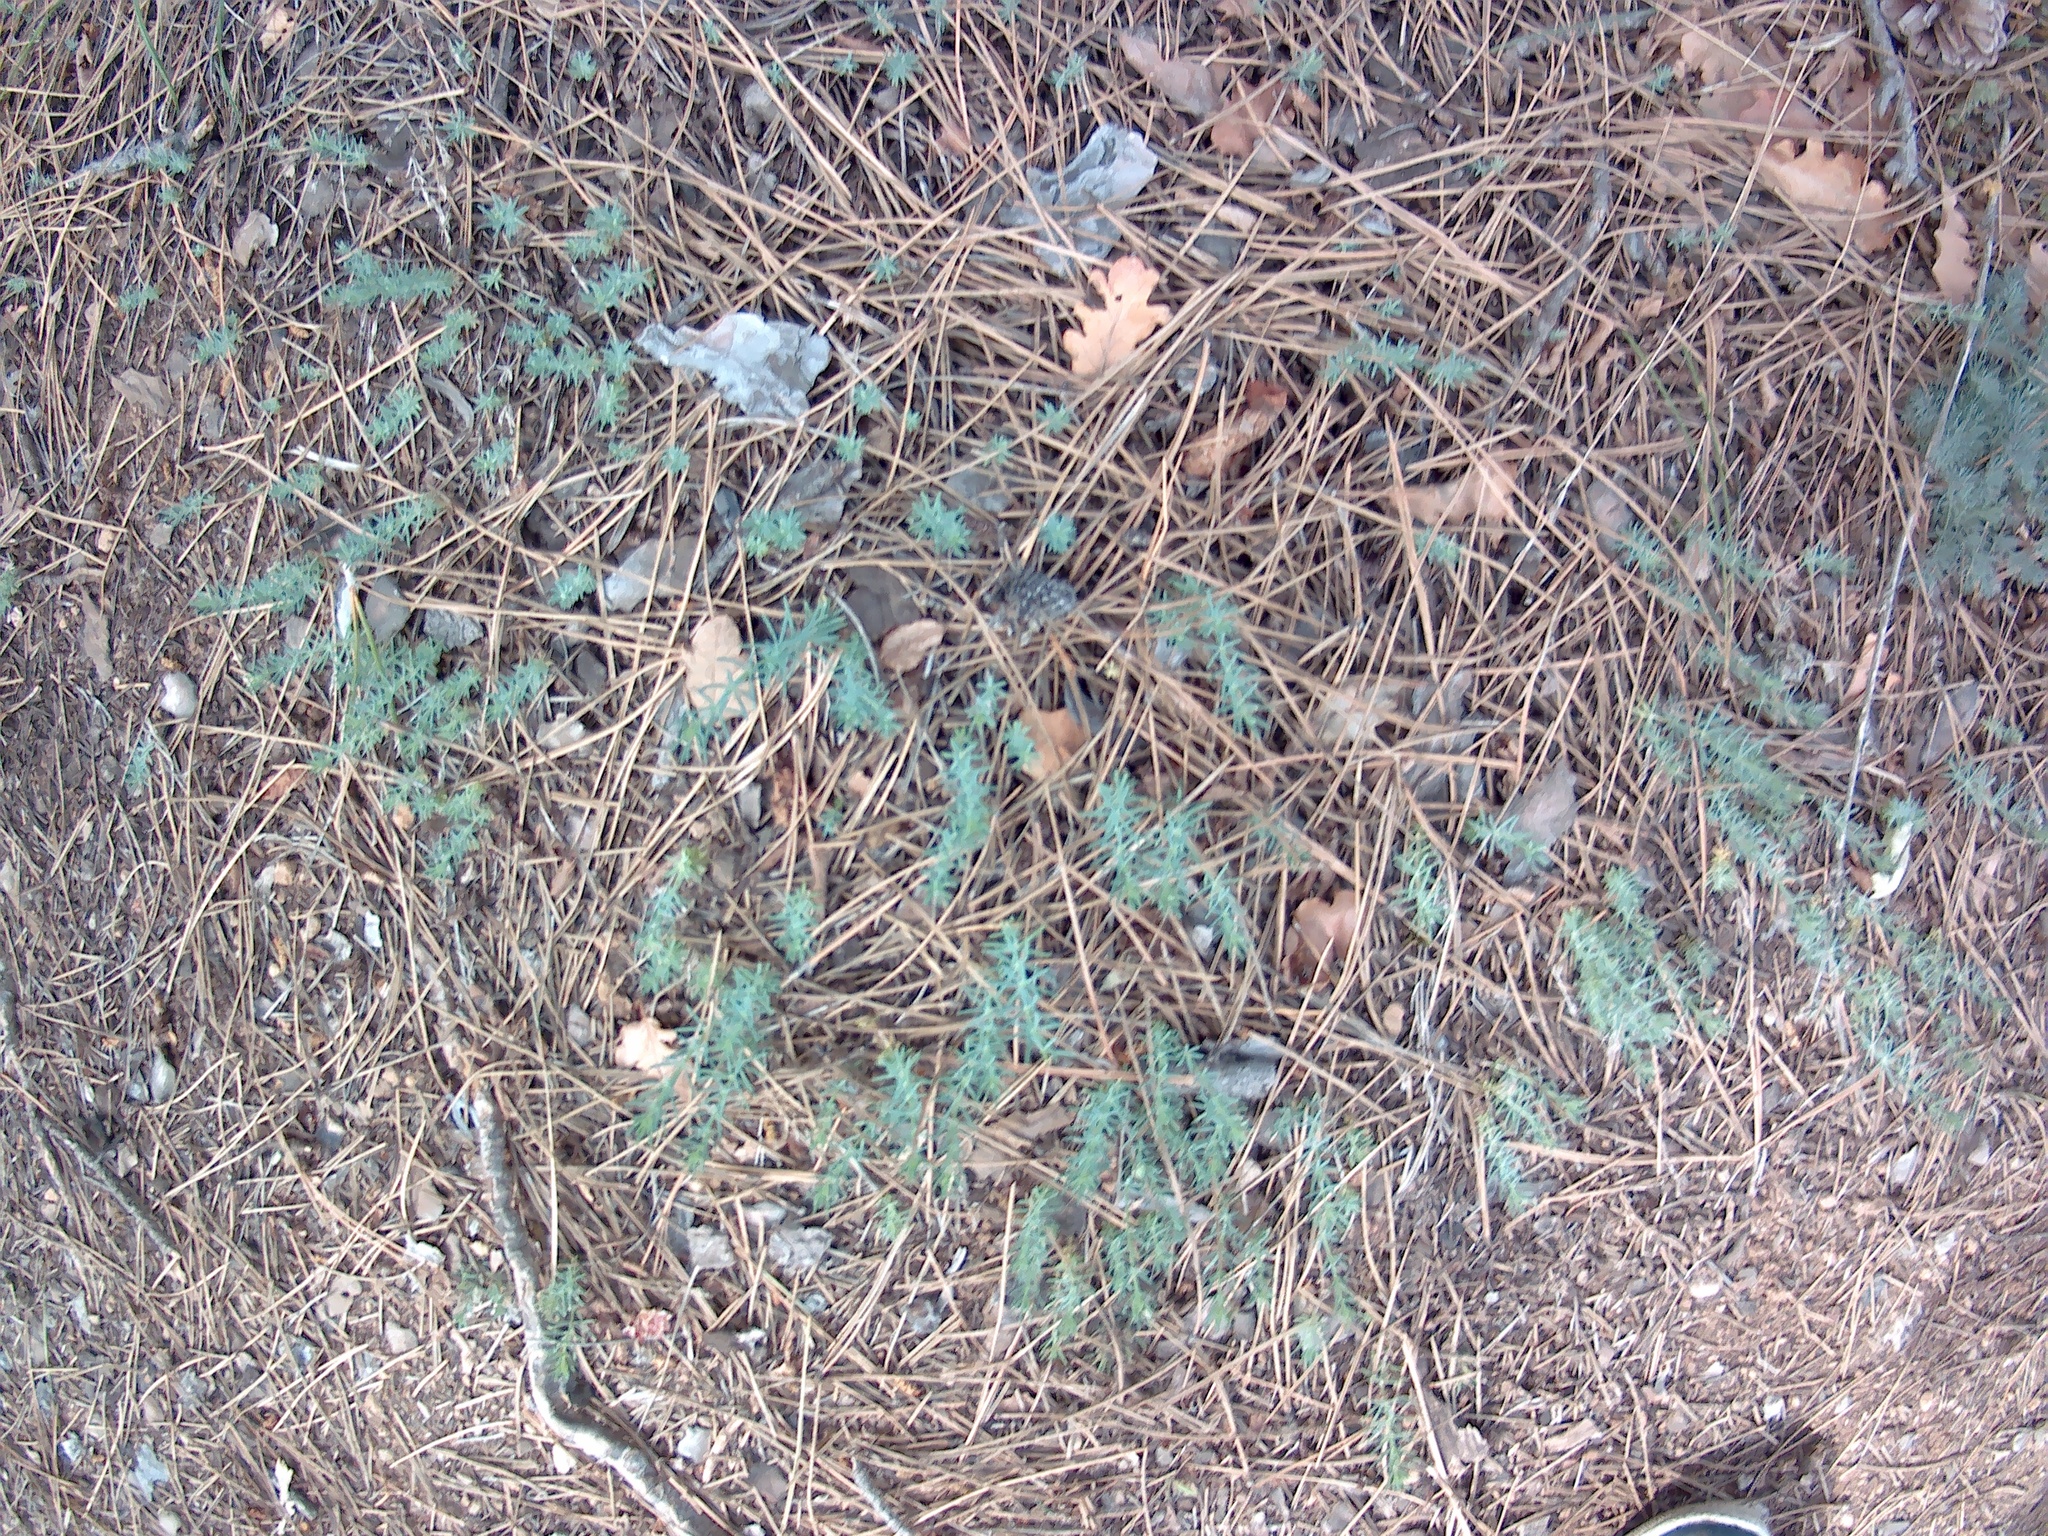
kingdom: Plantae
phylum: Tracheophyta
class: Magnoliopsida
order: Apiales
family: Apiaceae
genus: Seseli
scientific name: Seseli dichotomum
